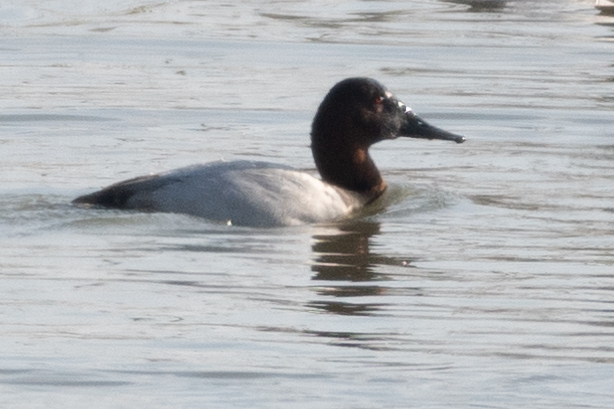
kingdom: Animalia
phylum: Chordata
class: Aves
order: Anseriformes
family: Anatidae
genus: Aythya
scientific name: Aythya valisineria
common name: Canvasback
